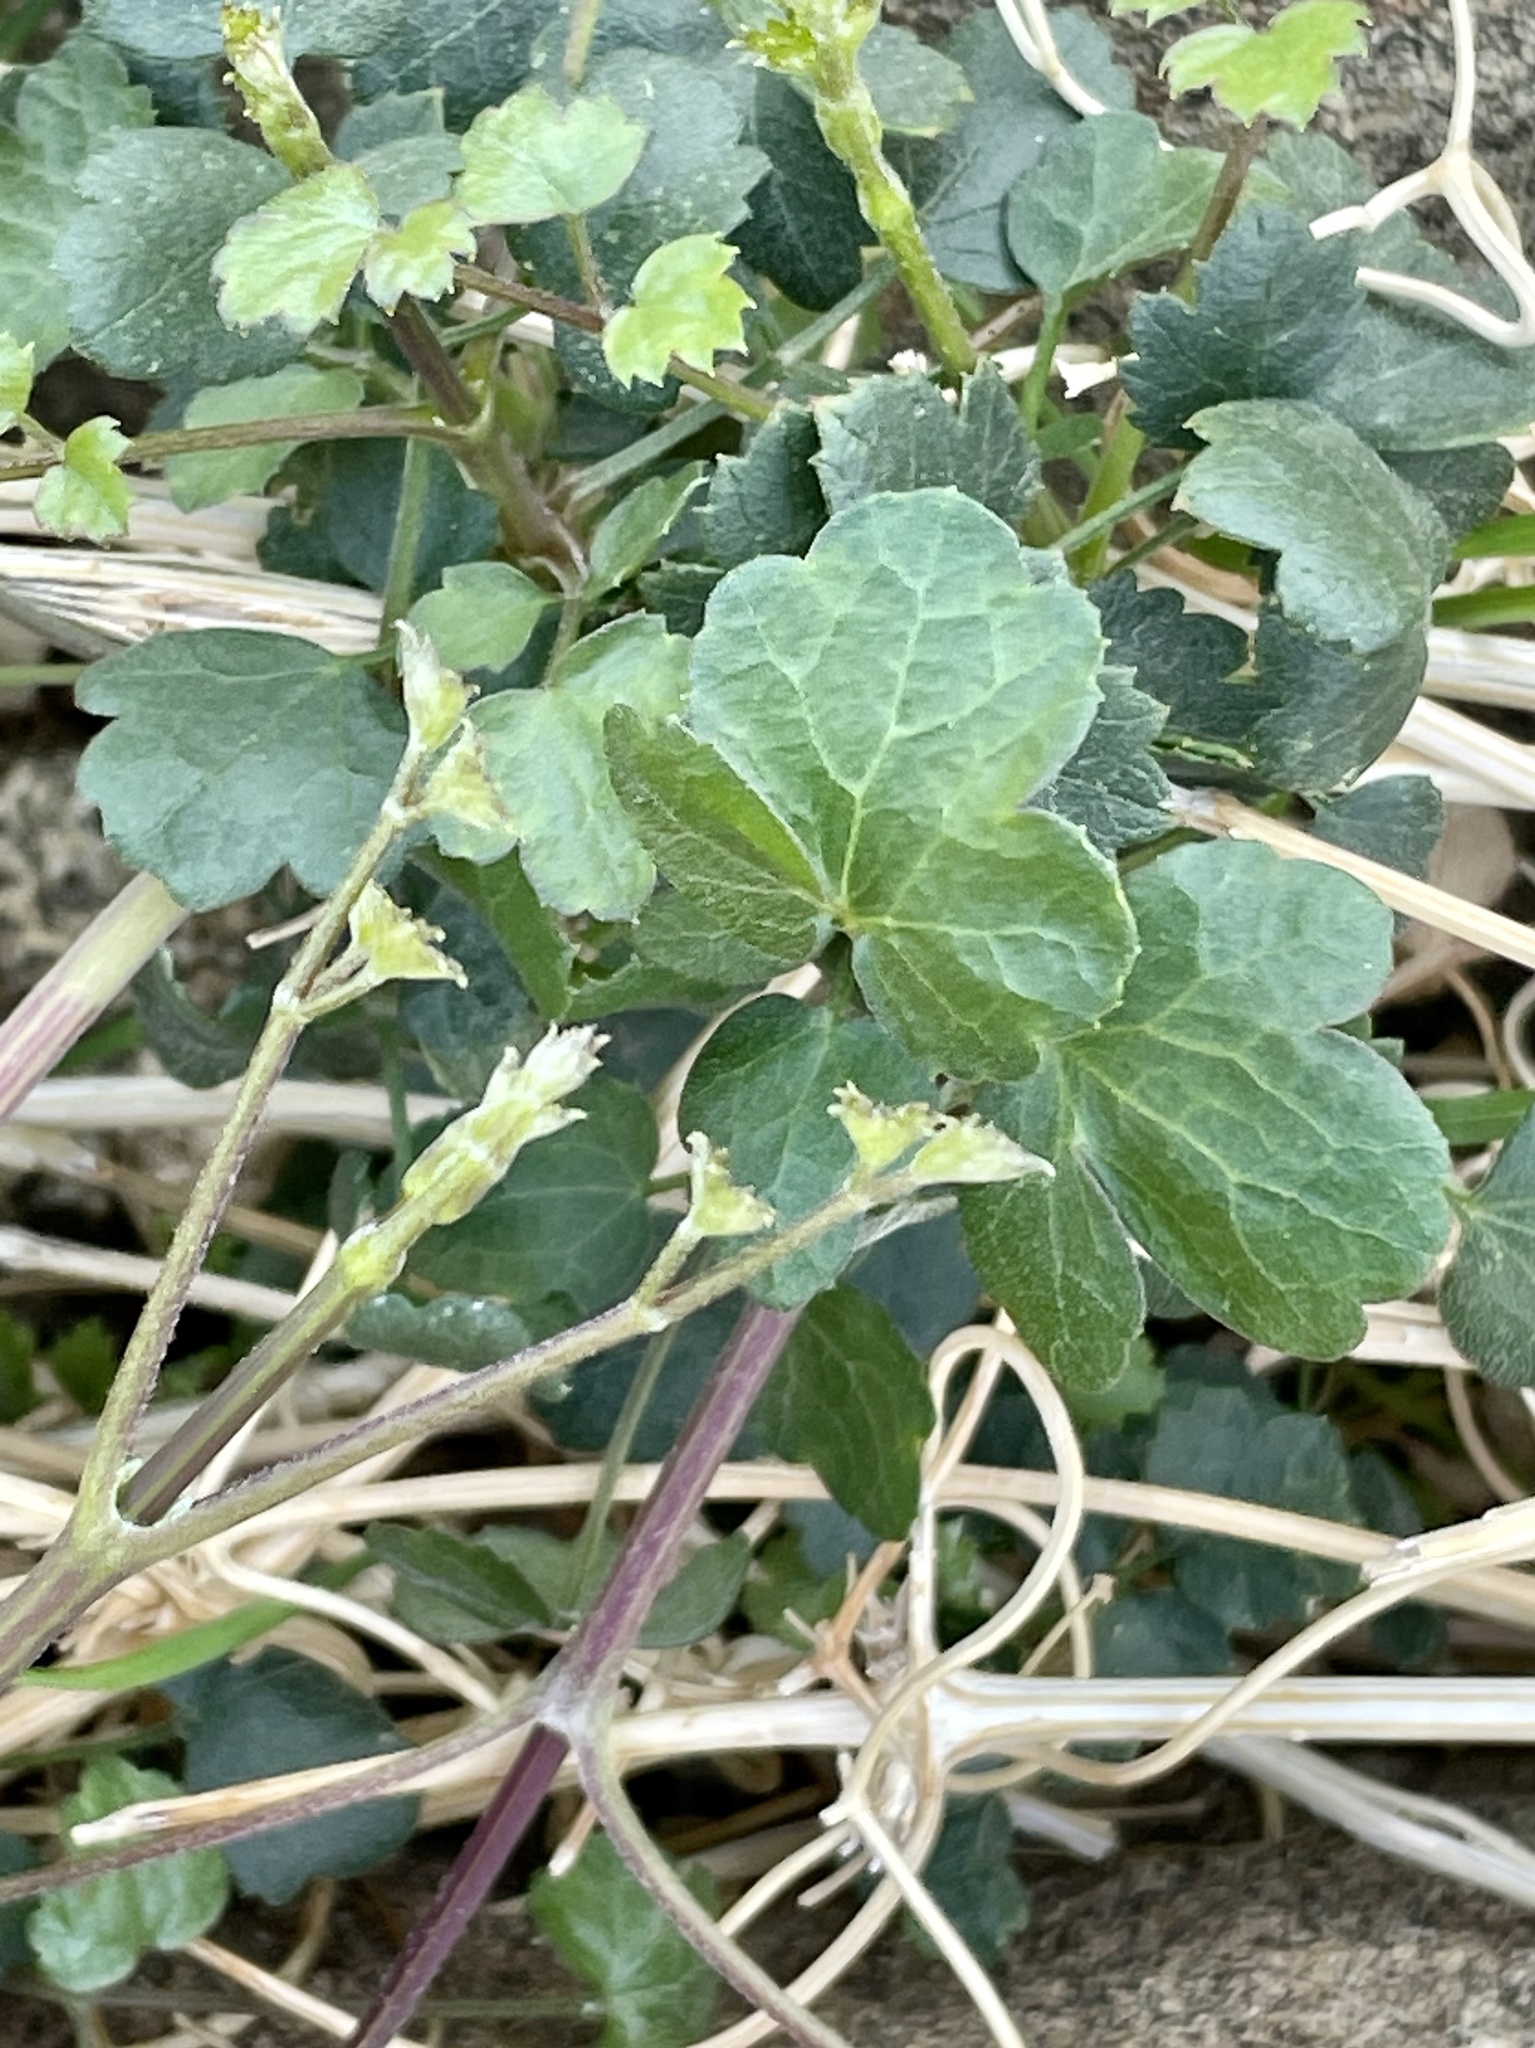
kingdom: Plantae
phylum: Tracheophyta
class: Magnoliopsida
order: Ranunculales
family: Ranunculaceae
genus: Clematis
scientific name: Clematis pauciflora
